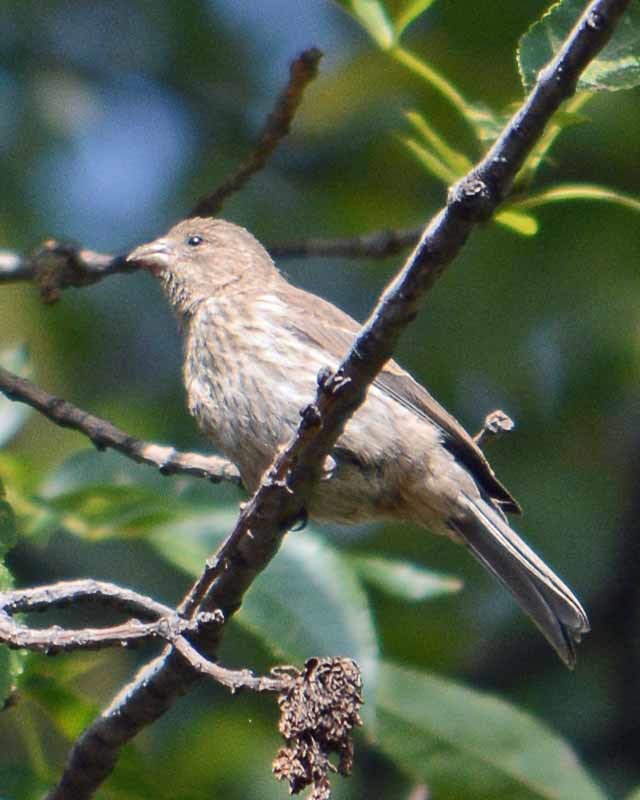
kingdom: Animalia
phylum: Chordata
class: Aves
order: Passeriformes
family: Fringillidae
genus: Haemorhous
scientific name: Haemorhous mexicanus
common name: House finch
